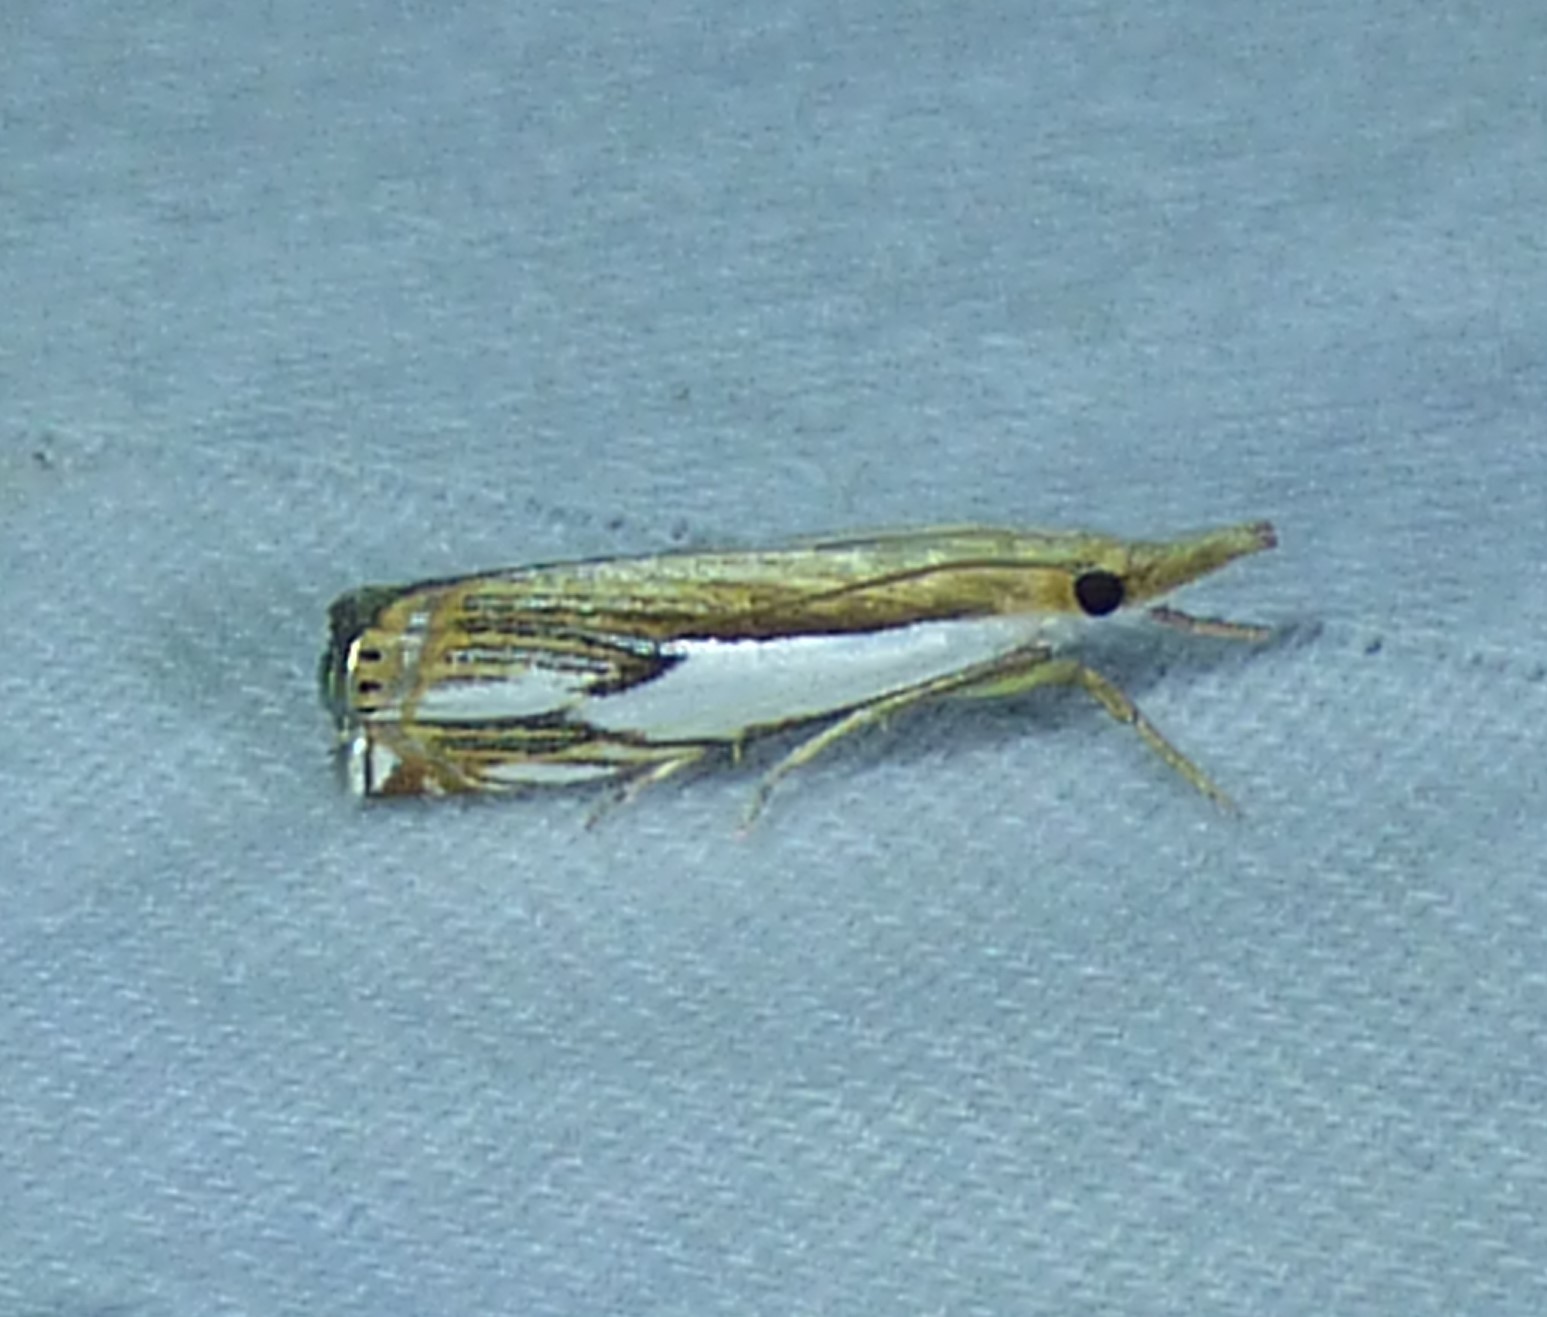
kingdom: Animalia
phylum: Arthropoda
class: Insecta
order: Lepidoptera
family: Crambidae
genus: Crambus
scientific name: Crambus agitatellus
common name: Double-banded grass-veneer
